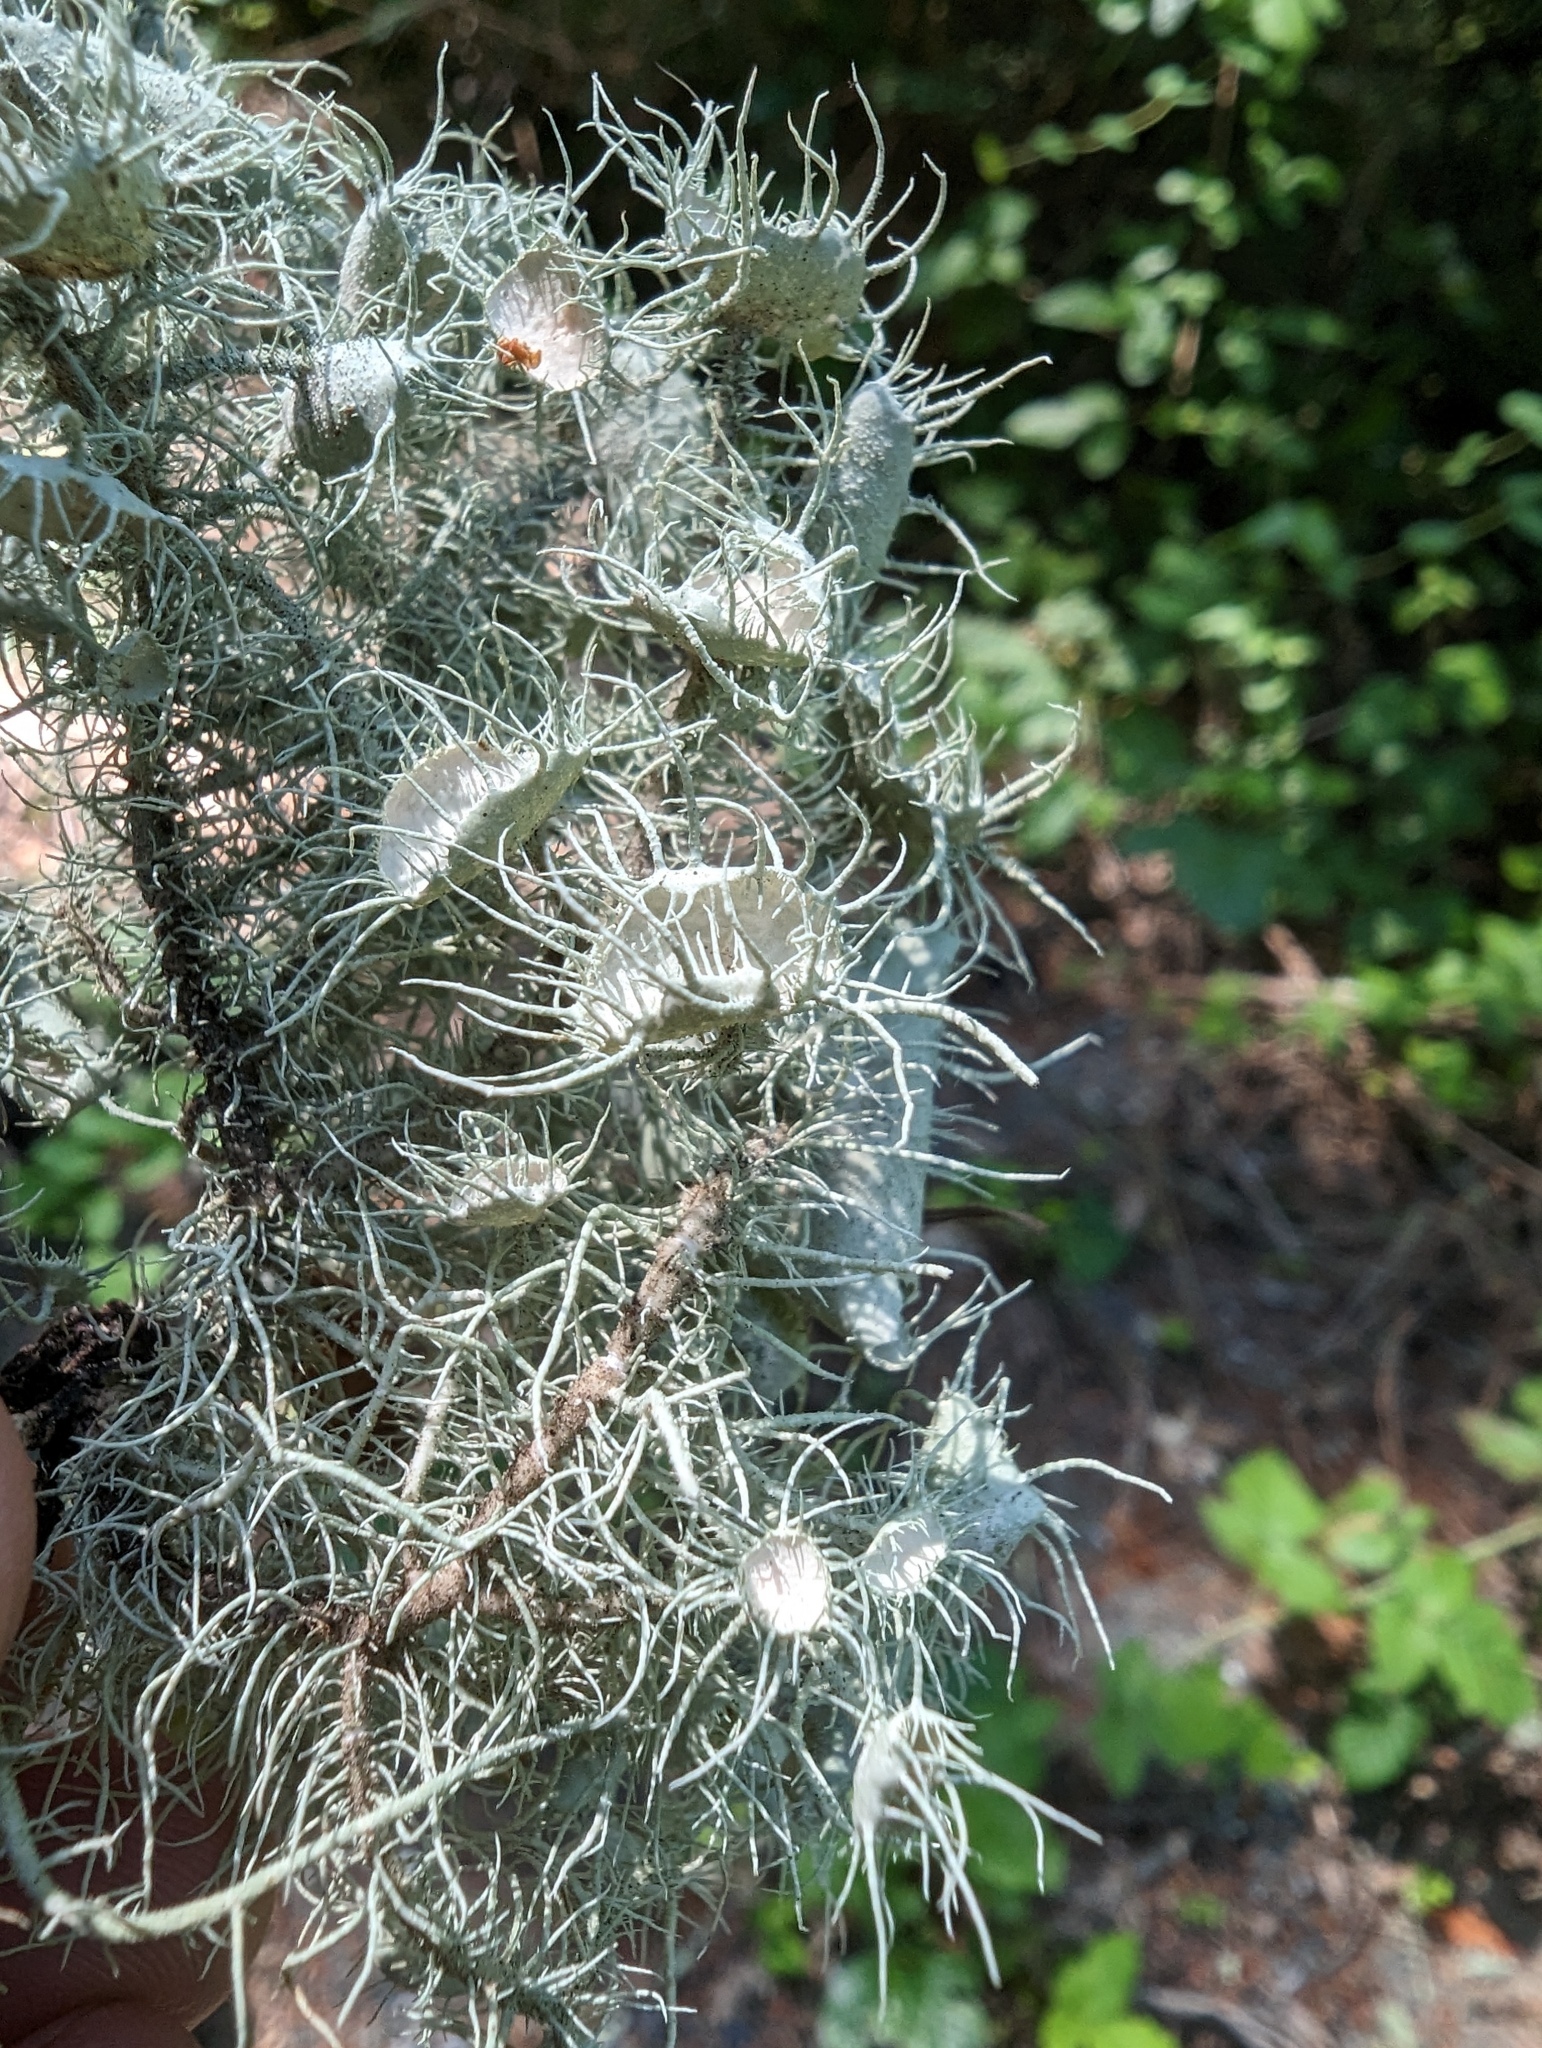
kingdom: Fungi
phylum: Ascomycota
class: Lecanoromycetes
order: Lecanorales
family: Parmeliaceae
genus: Usnea
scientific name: Usnea intermedia
